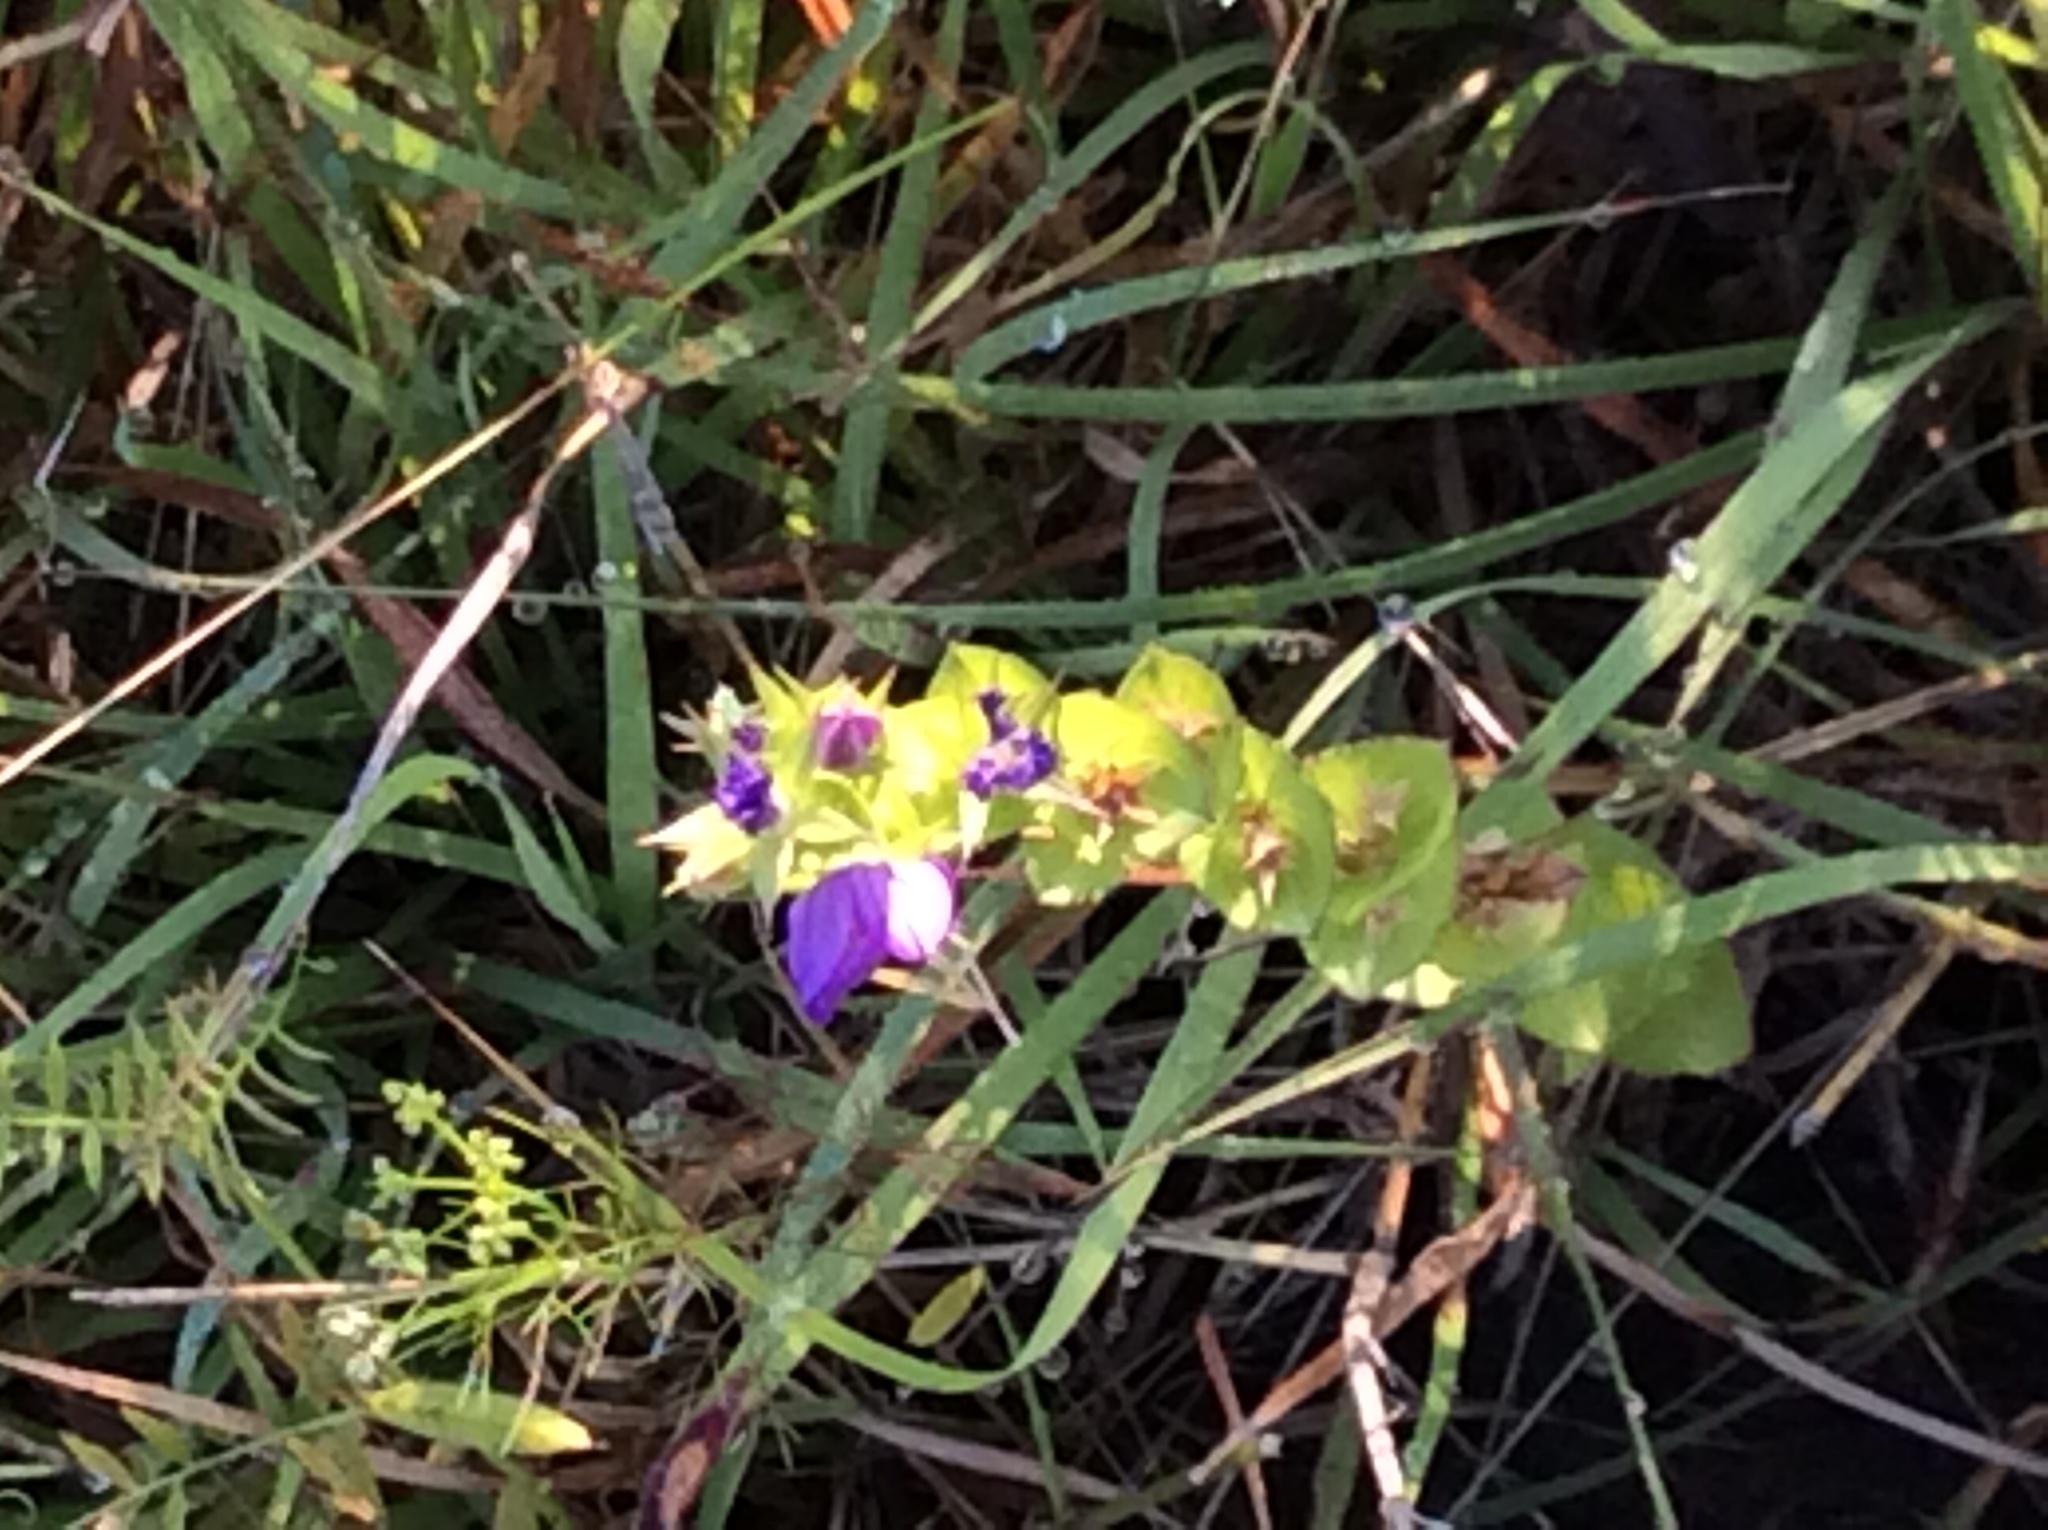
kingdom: Plantae
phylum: Tracheophyta
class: Magnoliopsida
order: Asterales
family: Campanulaceae
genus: Triodanis
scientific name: Triodanis perfoliata
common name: Clasping venus' looking-glass
